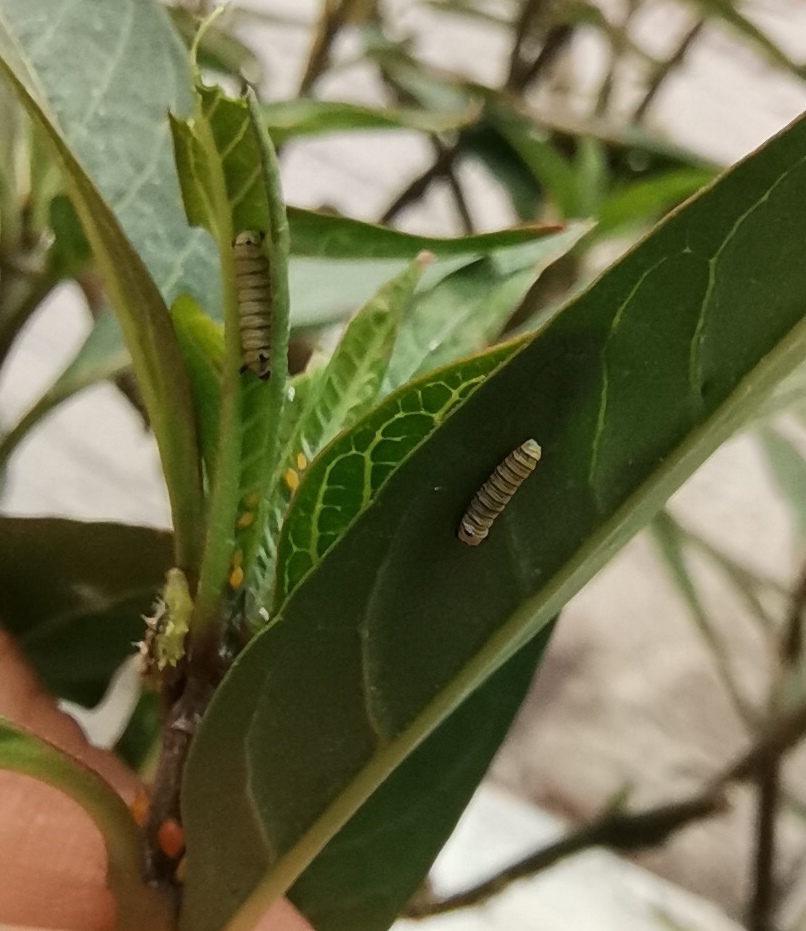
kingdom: Animalia
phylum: Arthropoda
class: Insecta
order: Lepidoptera
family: Nymphalidae
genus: Danaus
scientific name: Danaus plexippus
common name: Monarch
